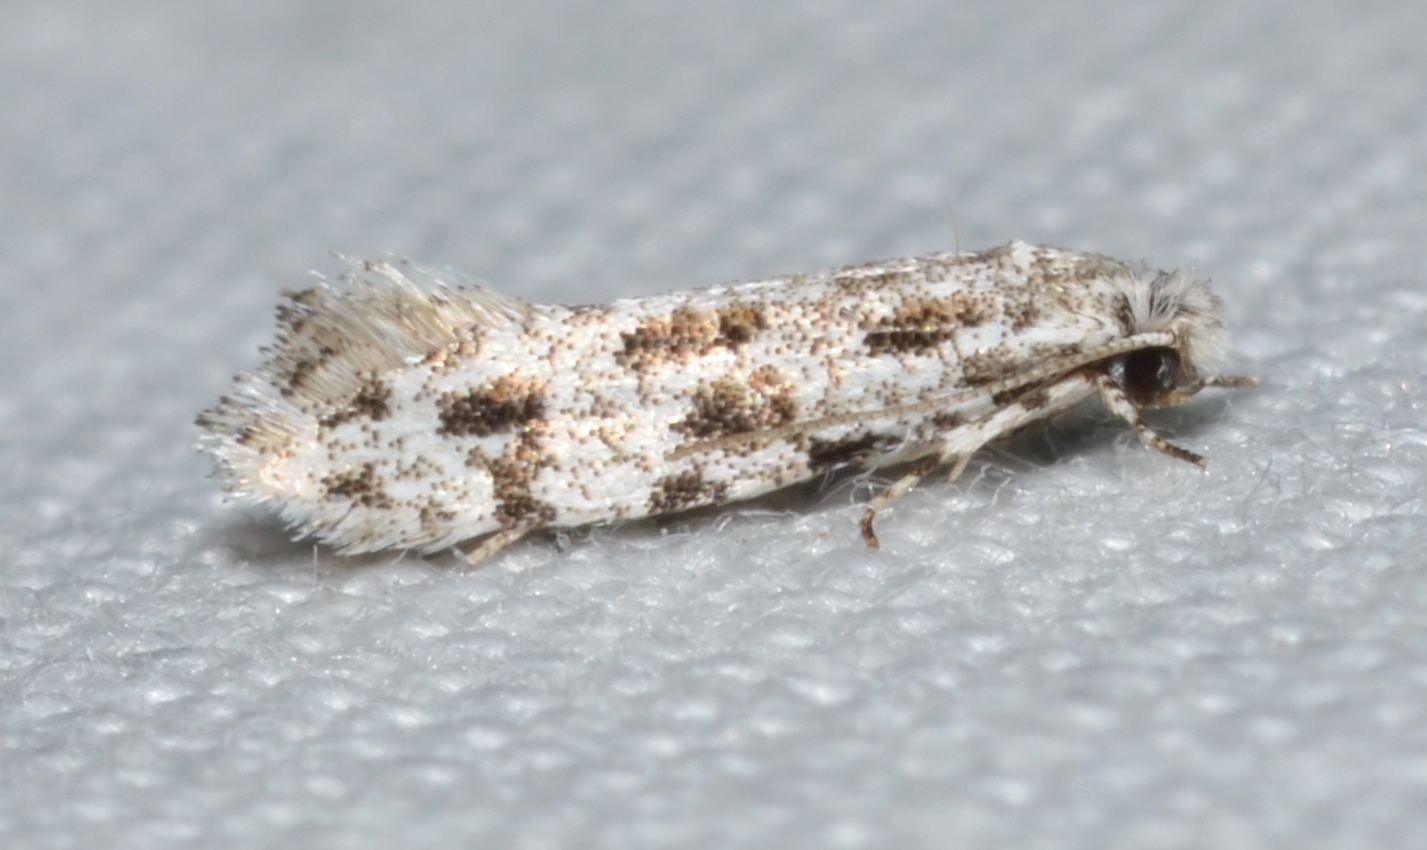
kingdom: Animalia
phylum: Arthropoda
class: Insecta
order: Lepidoptera
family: Meessiidae
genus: Diachorisia
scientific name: Diachorisia velatella
